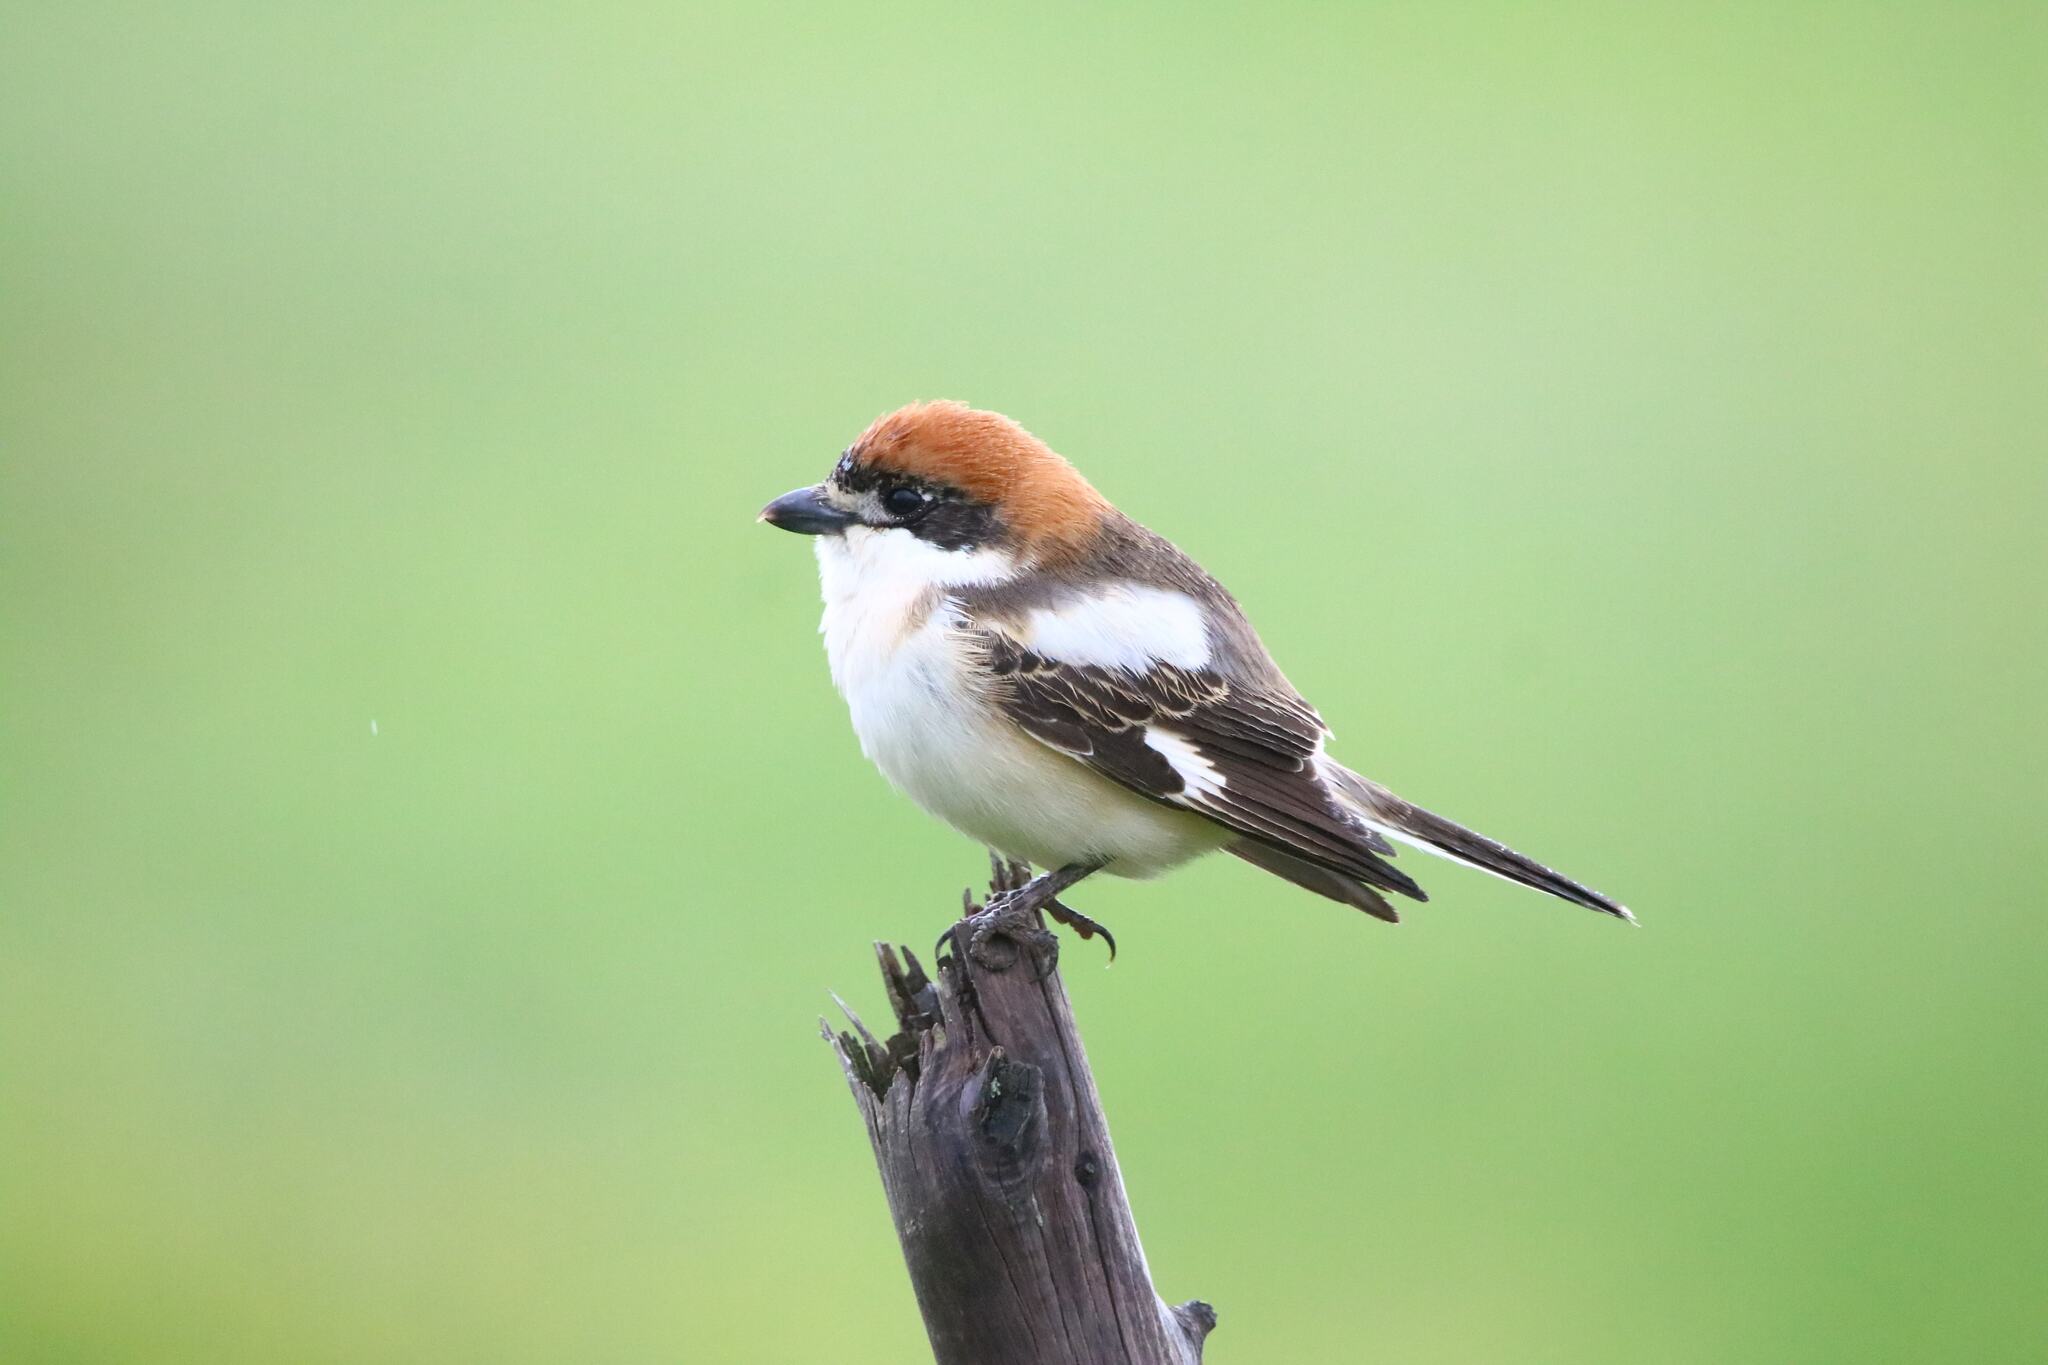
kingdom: Animalia
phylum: Chordata
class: Aves
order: Passeriformes
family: Laniidae
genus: Lanius
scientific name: Lanius senator
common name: Woodchat shrike
